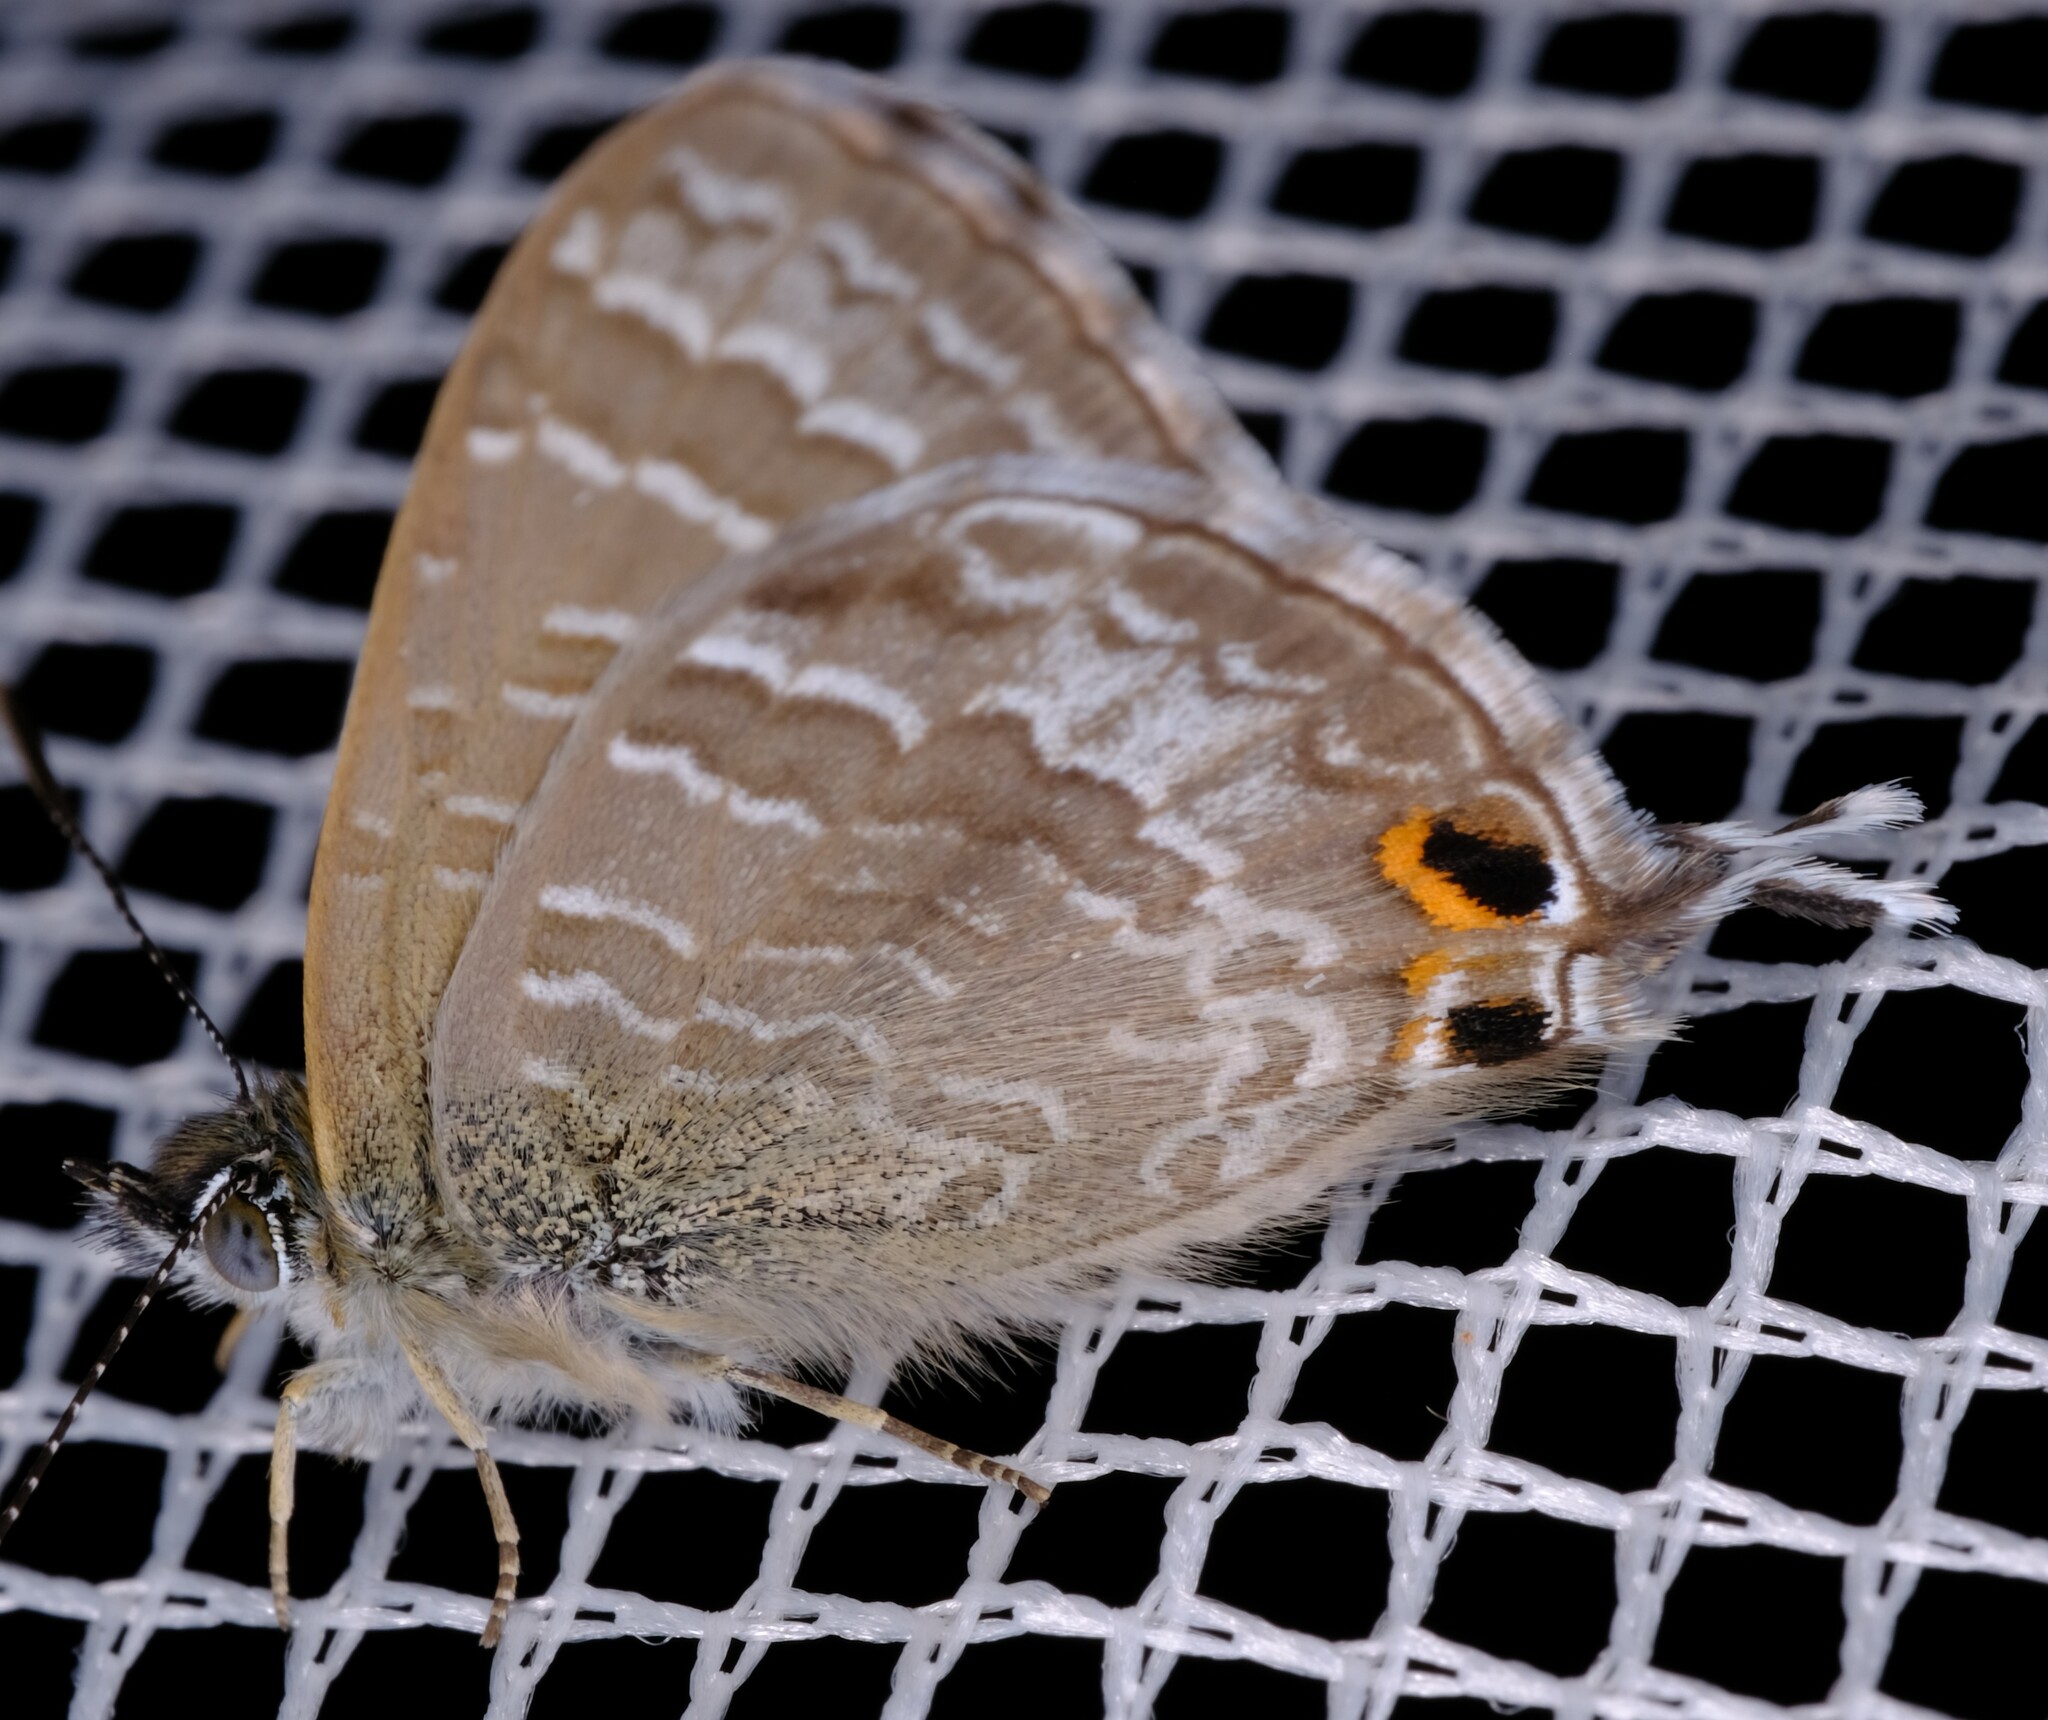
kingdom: Animalia
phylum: Arthropoda
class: Insecta
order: Lepidoptera
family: Lycaenidae
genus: Theclinesthes
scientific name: Theclinesthes onycha
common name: Cycad blue
